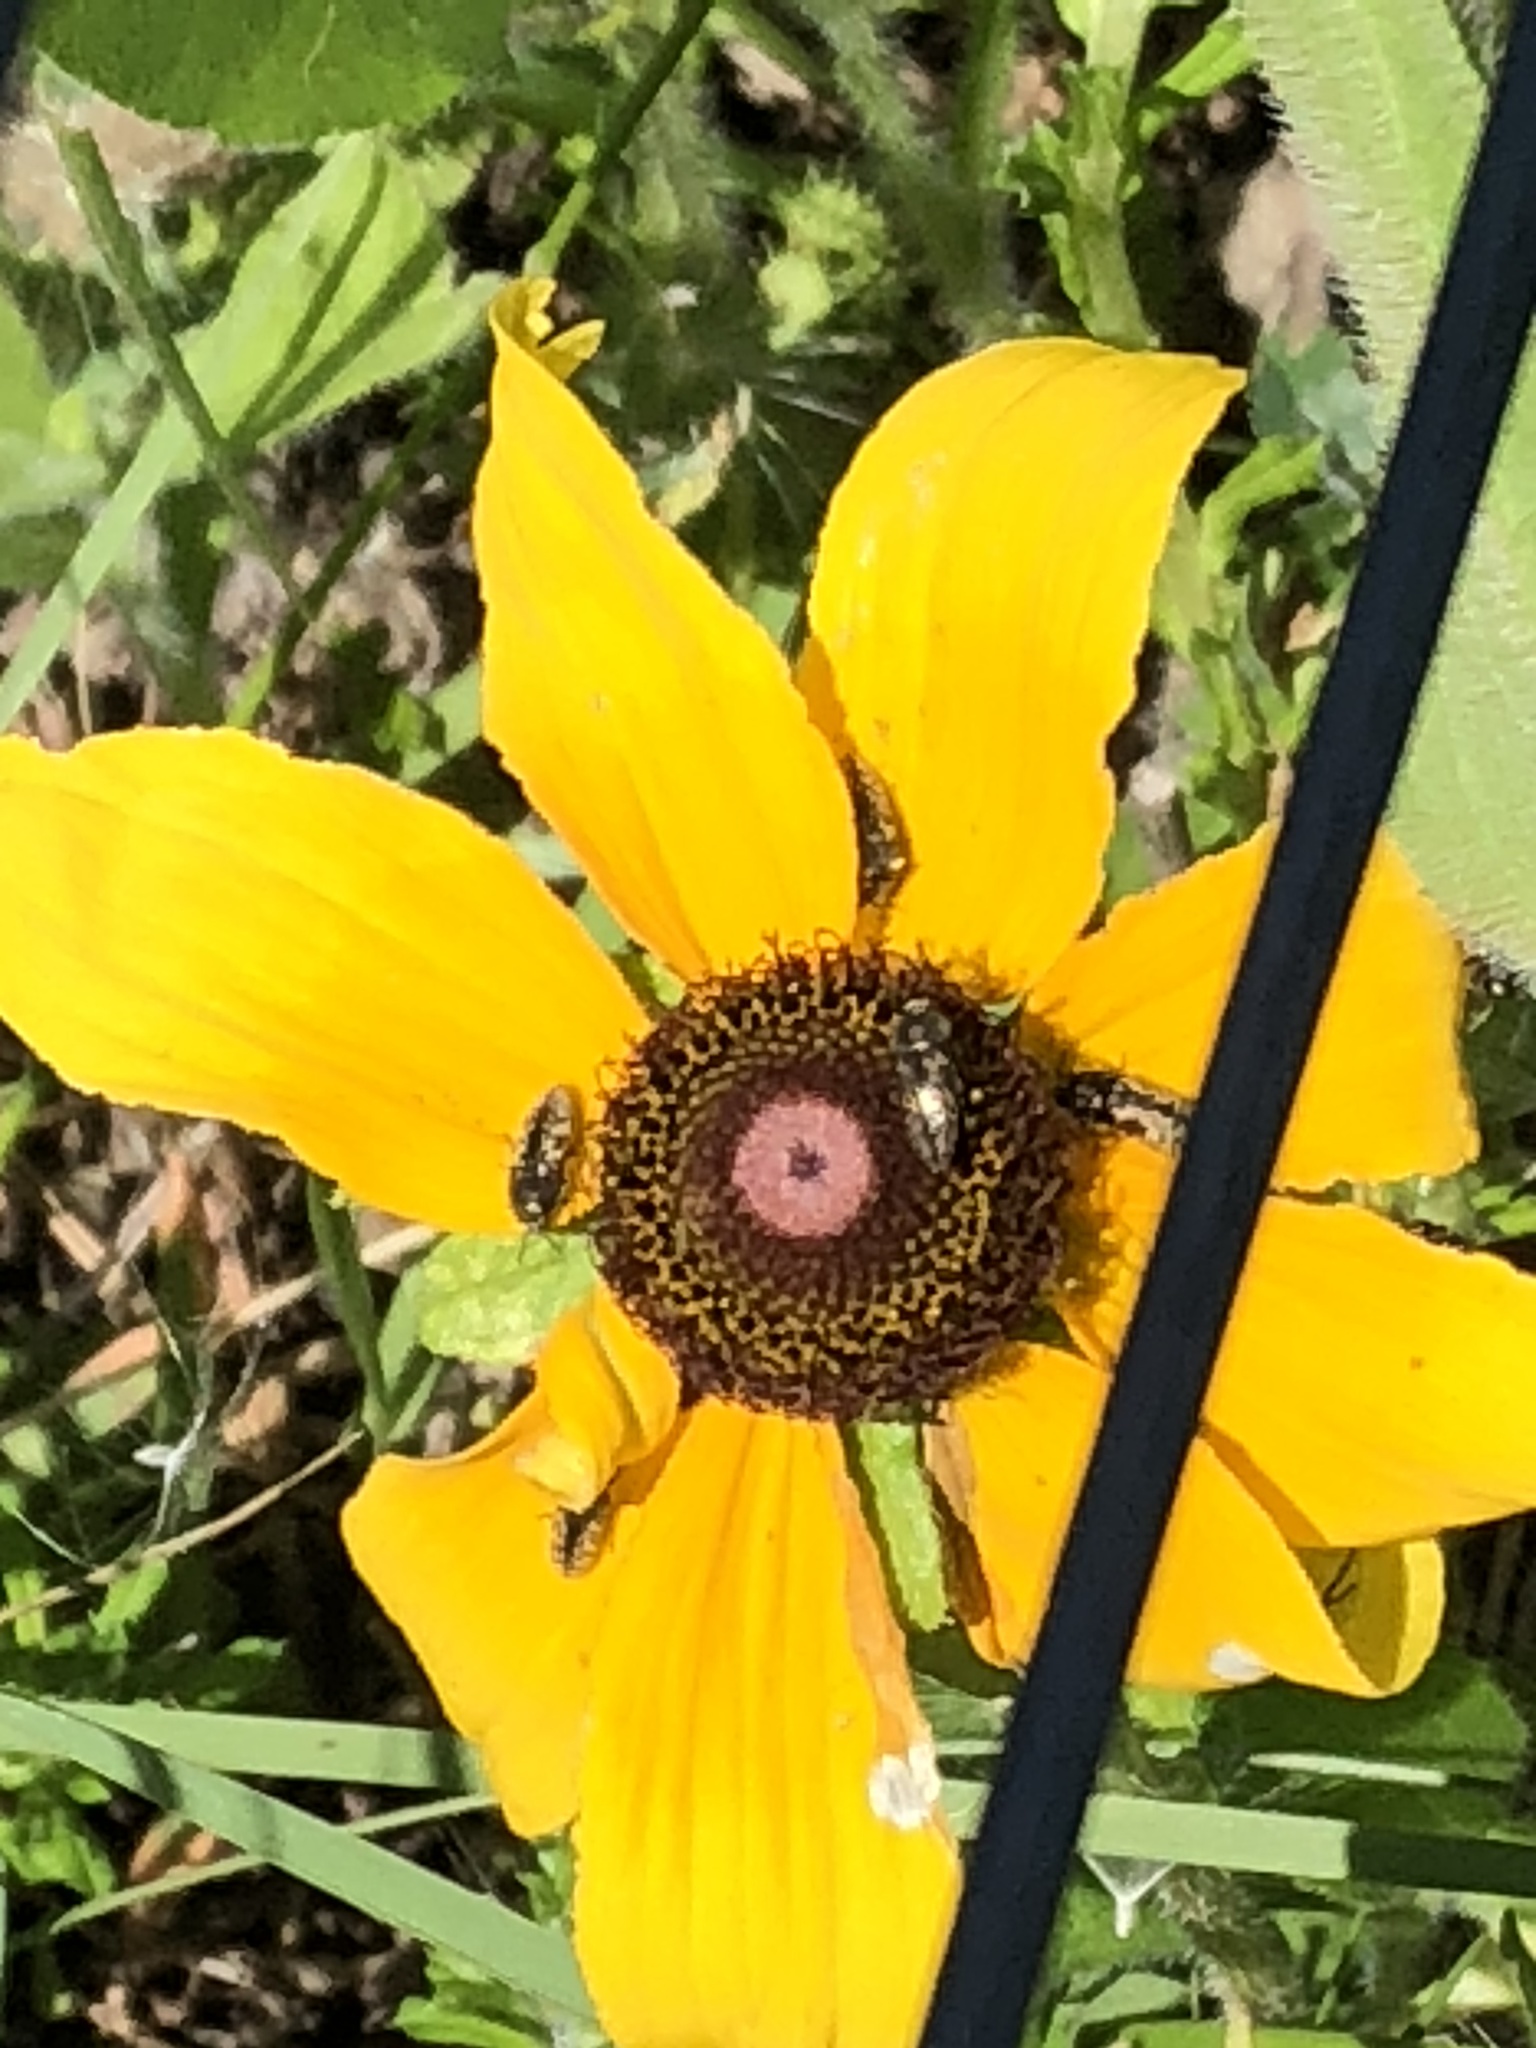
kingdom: Plantae
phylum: Tracheophyta
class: Magnoliopsida
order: Asterales
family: Asteraceae
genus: Rudbeckia
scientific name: Rudbeckia hirta
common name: Black-eyed-susan
